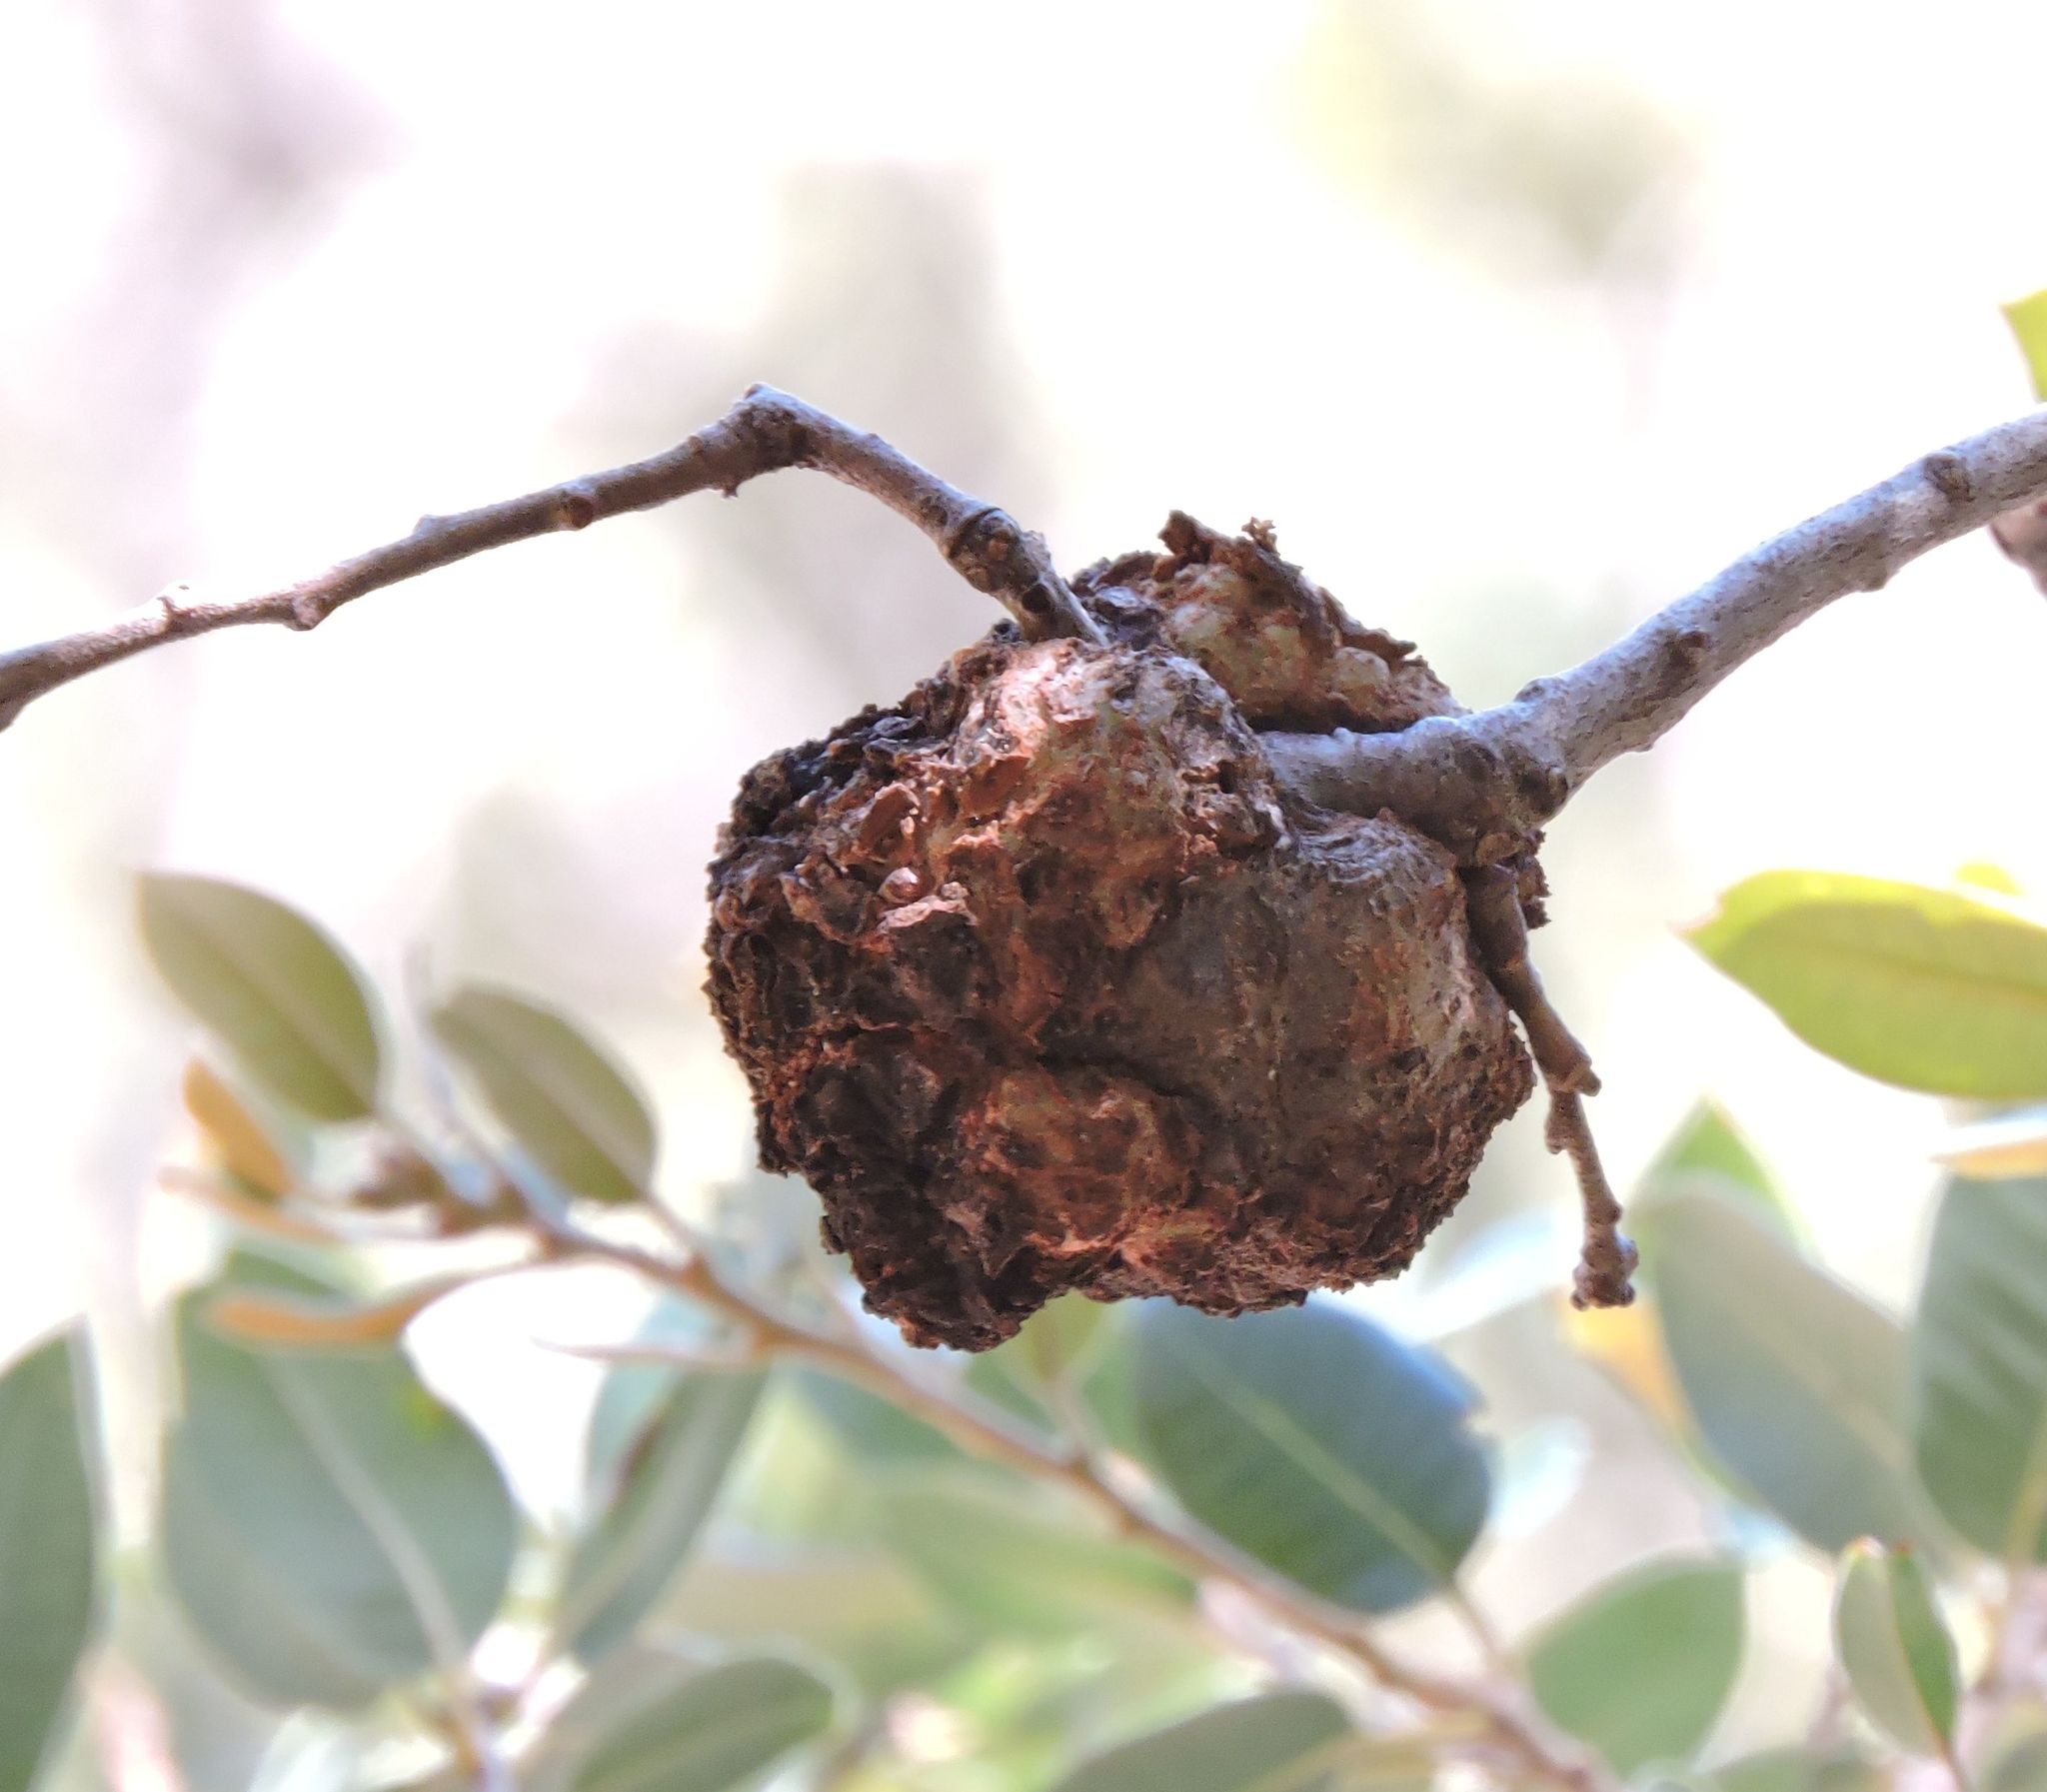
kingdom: Bacteria
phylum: Proteobacteria
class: Alphaproteobacteria
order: Rhizobiales
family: Rhizobiaceae
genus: Rhizobium
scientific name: Rhizobium Agrobacterium radiobacter
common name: Bacterial crown gall
